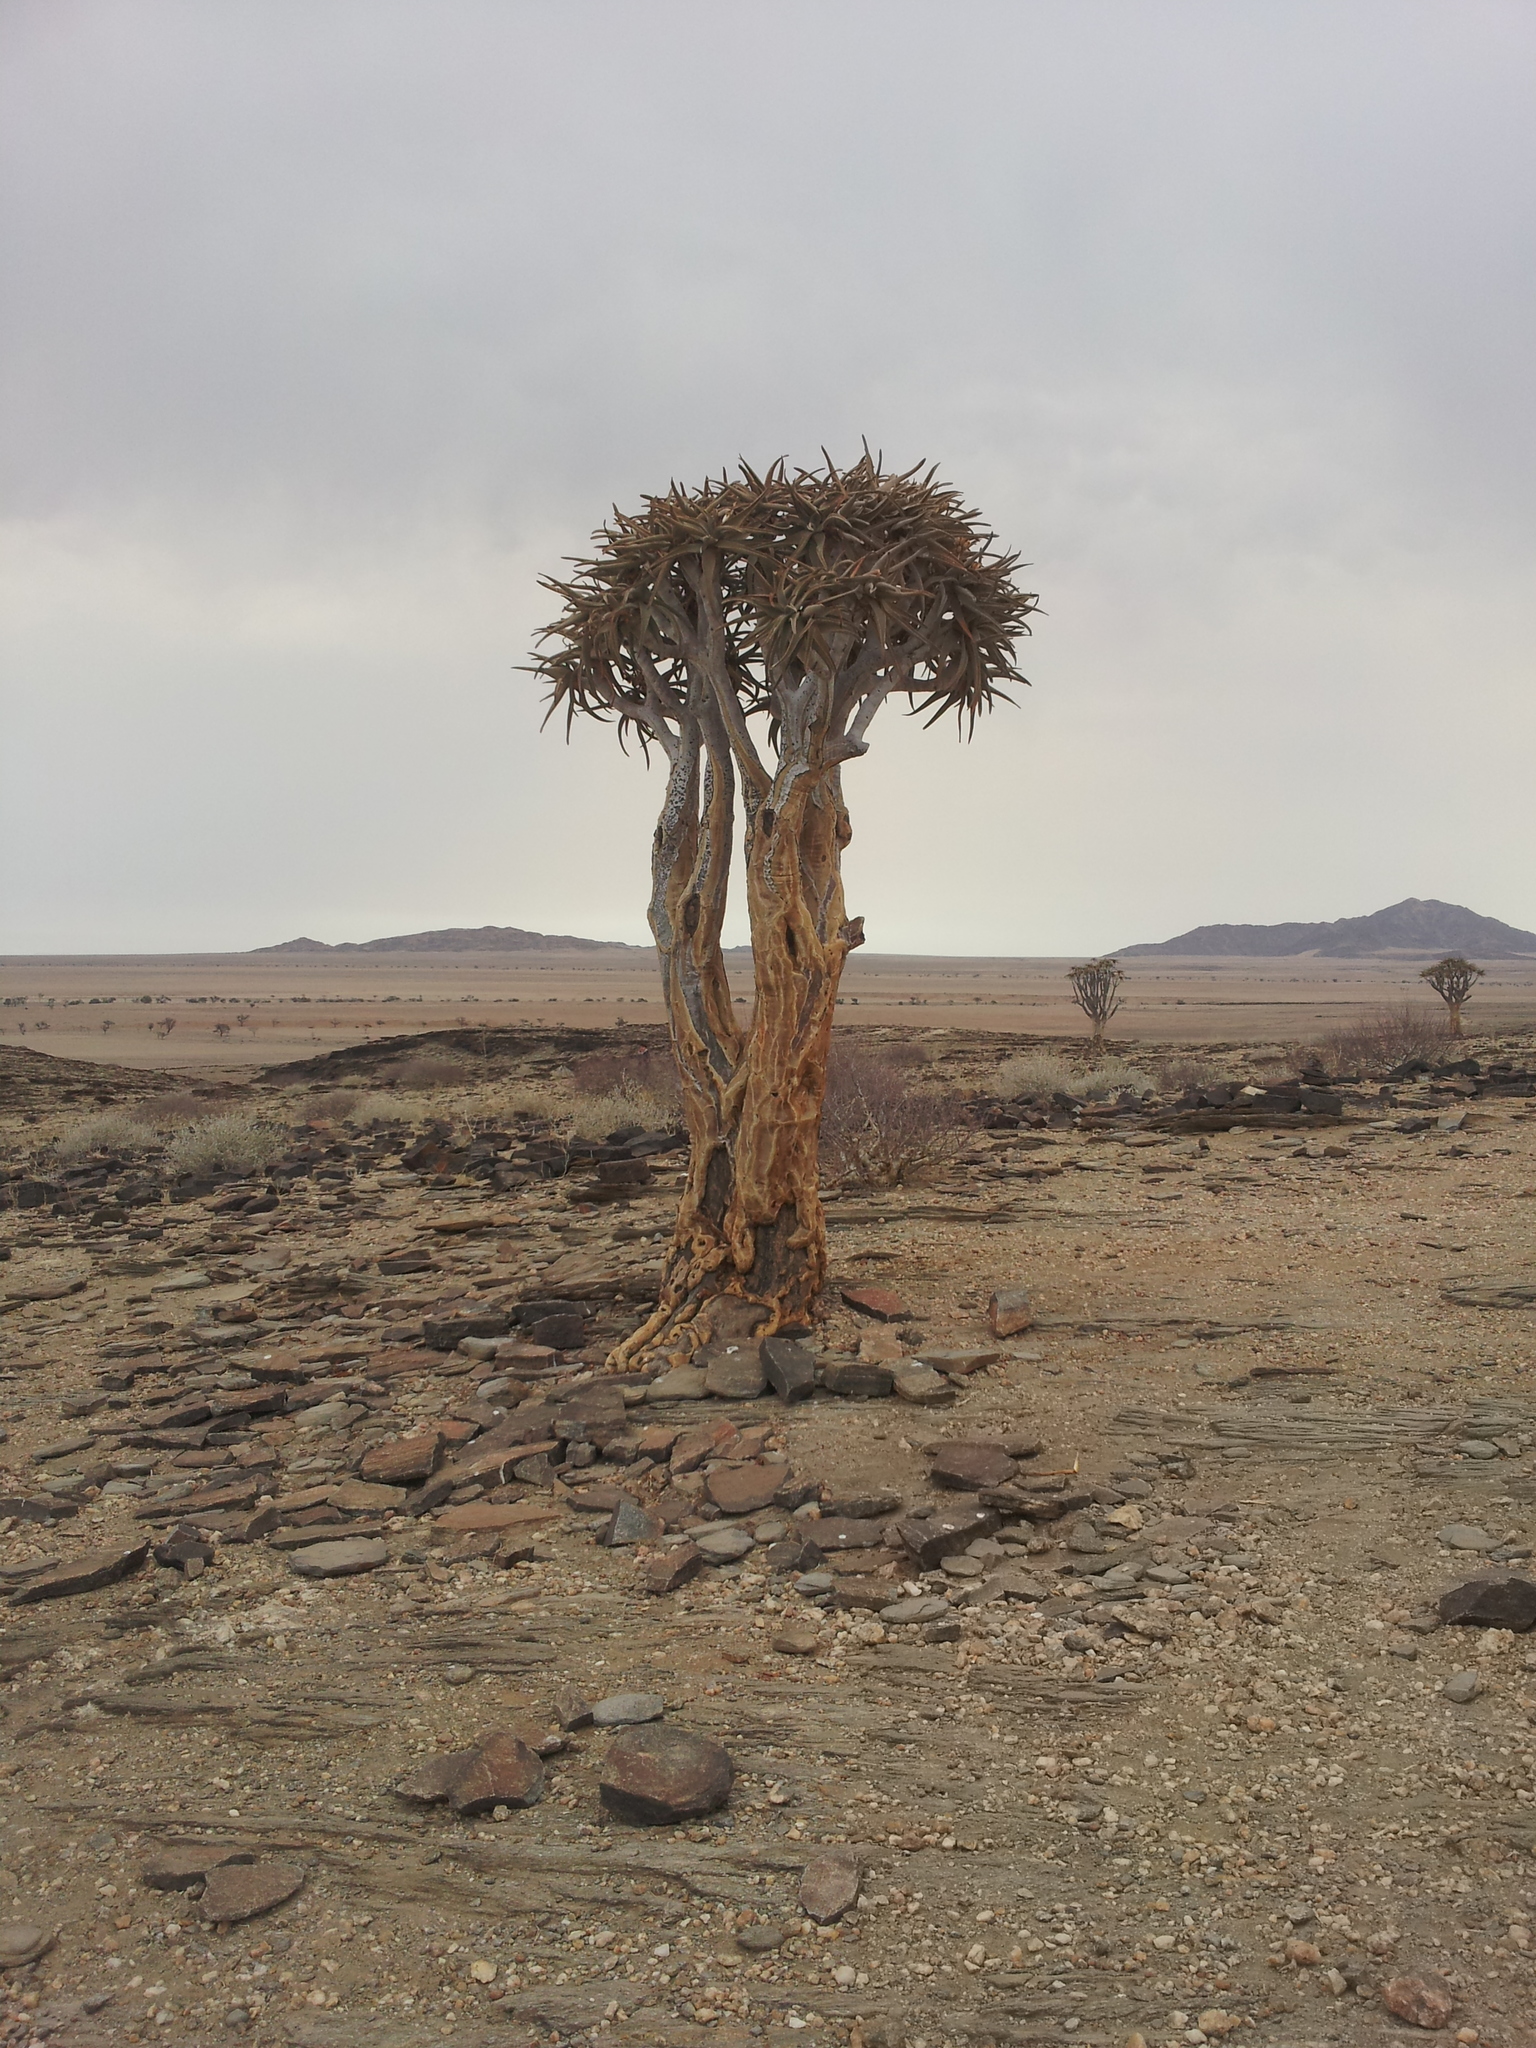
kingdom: Plantae
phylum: Tracheophyta
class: Liliopsida
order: Asparagales
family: Asphodelaceae
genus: Aloidendron
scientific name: Aloidendron dichotomum
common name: Quiver tree
